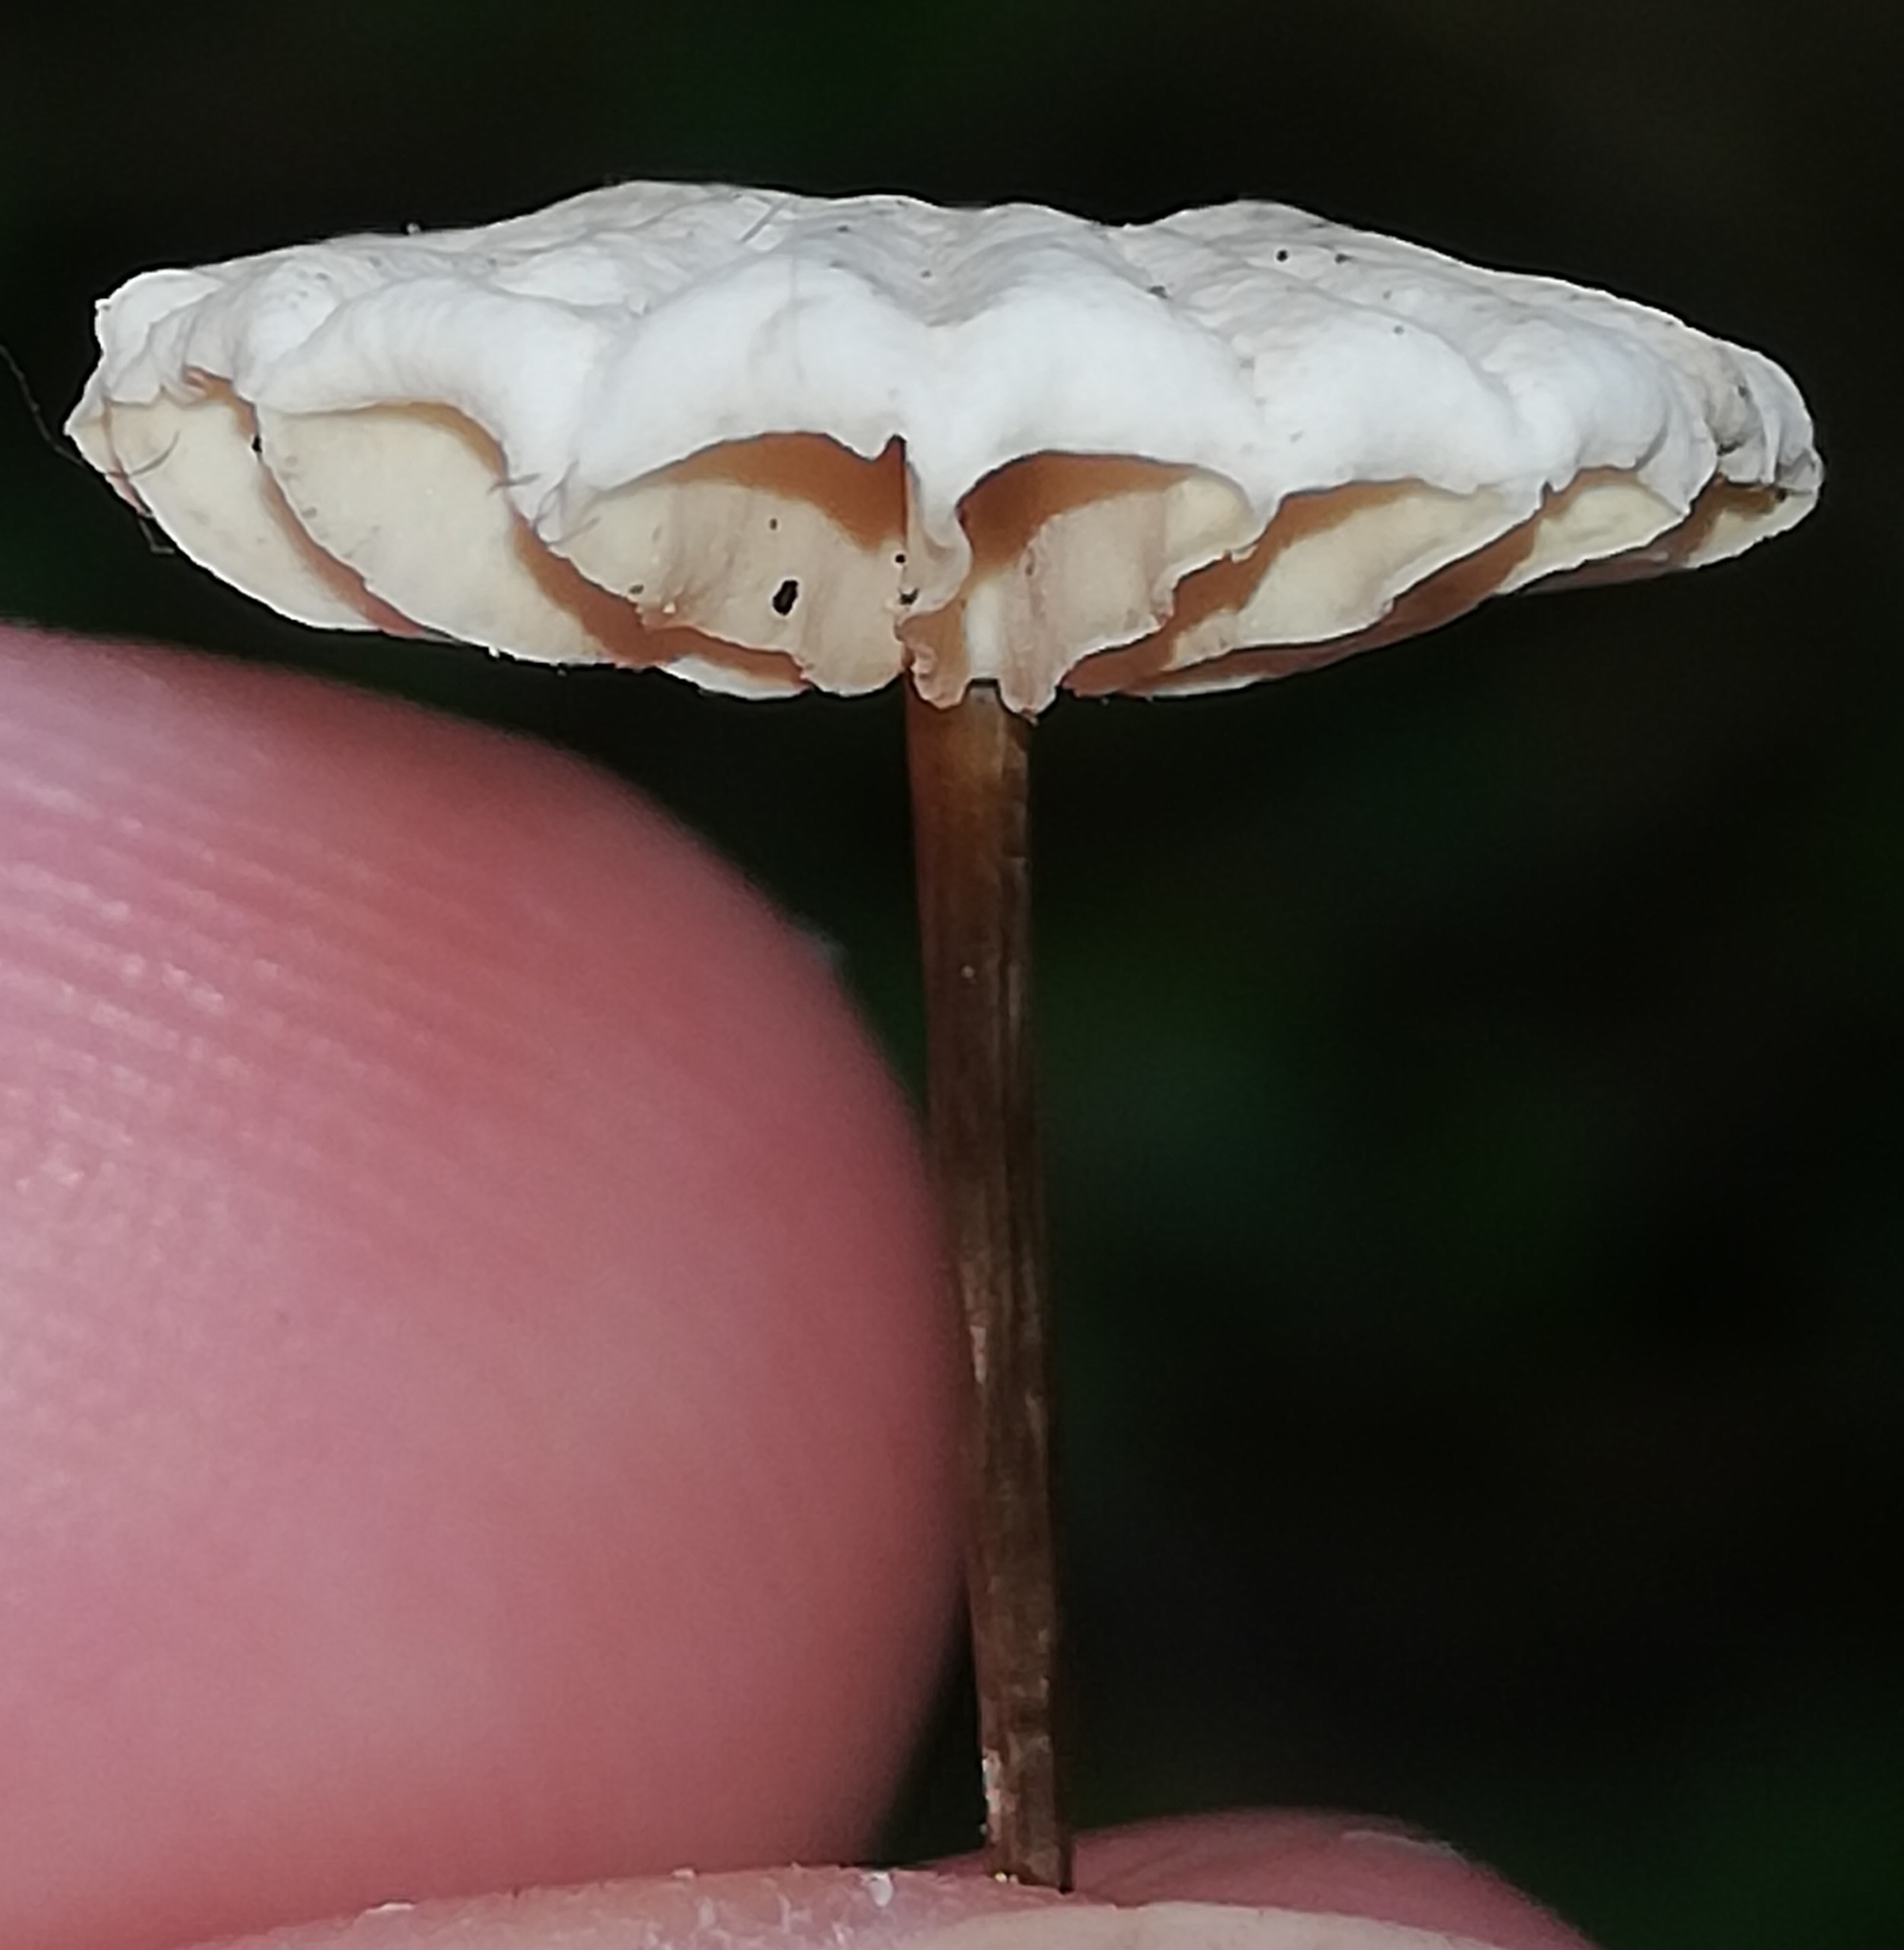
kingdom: Fungi
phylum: Basidiomycota
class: Agaricomycetes
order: Agaricales
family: Marasmiaceae
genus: Marasmius
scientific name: Marasmius rotula
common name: Collared parachute
